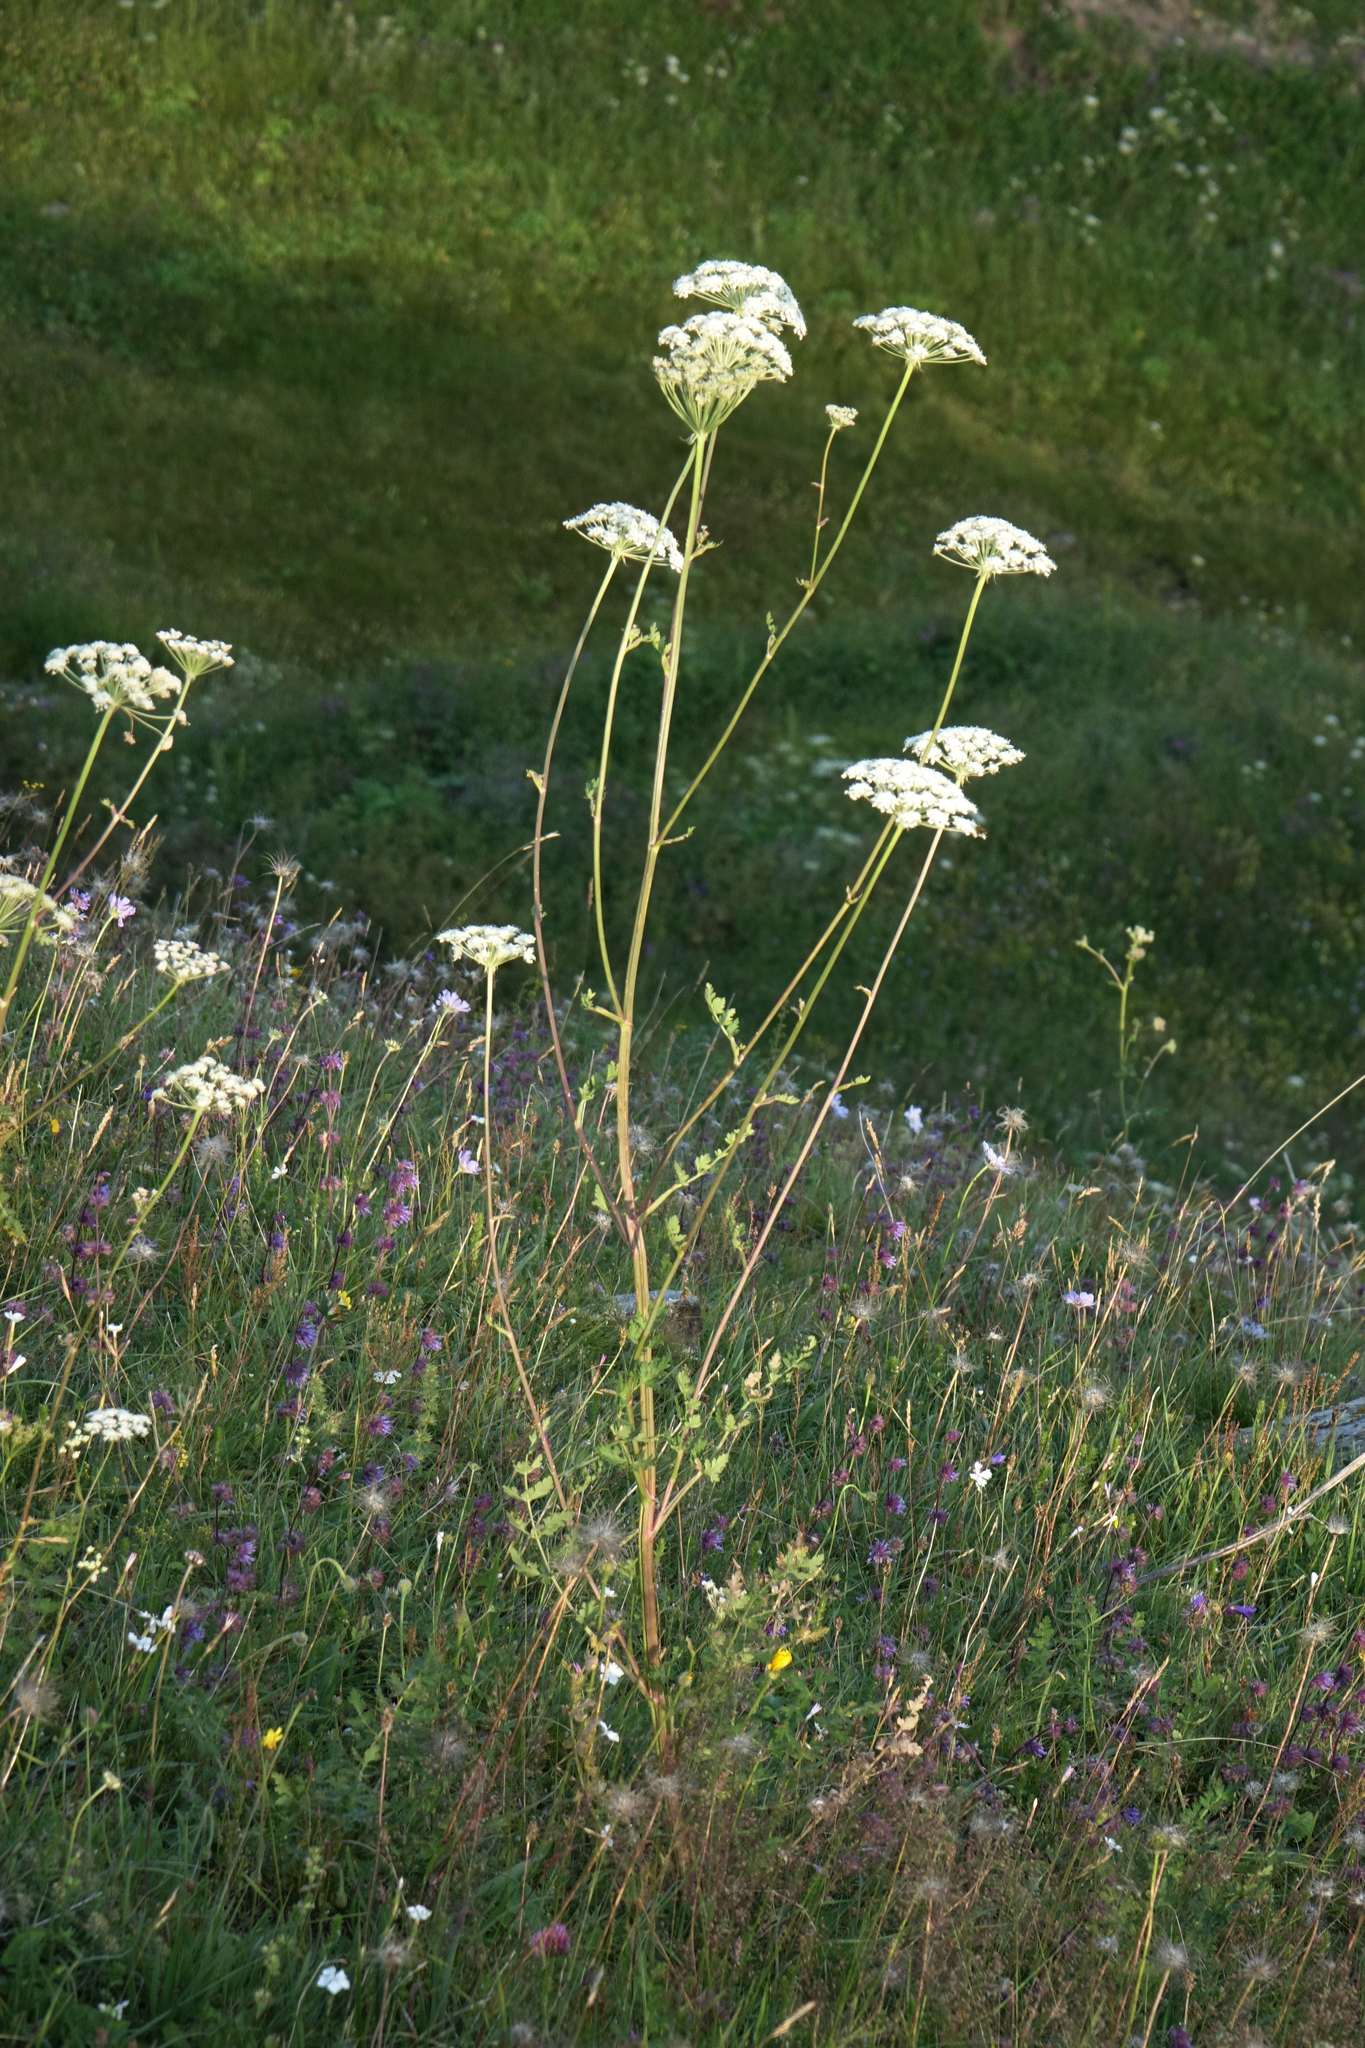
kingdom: Plantae
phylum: Tracheophyta
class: Magnoliopsida
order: Apiales
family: Apiaceae
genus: Seseli
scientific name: Seseli libanotis
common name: Mooncarrot
